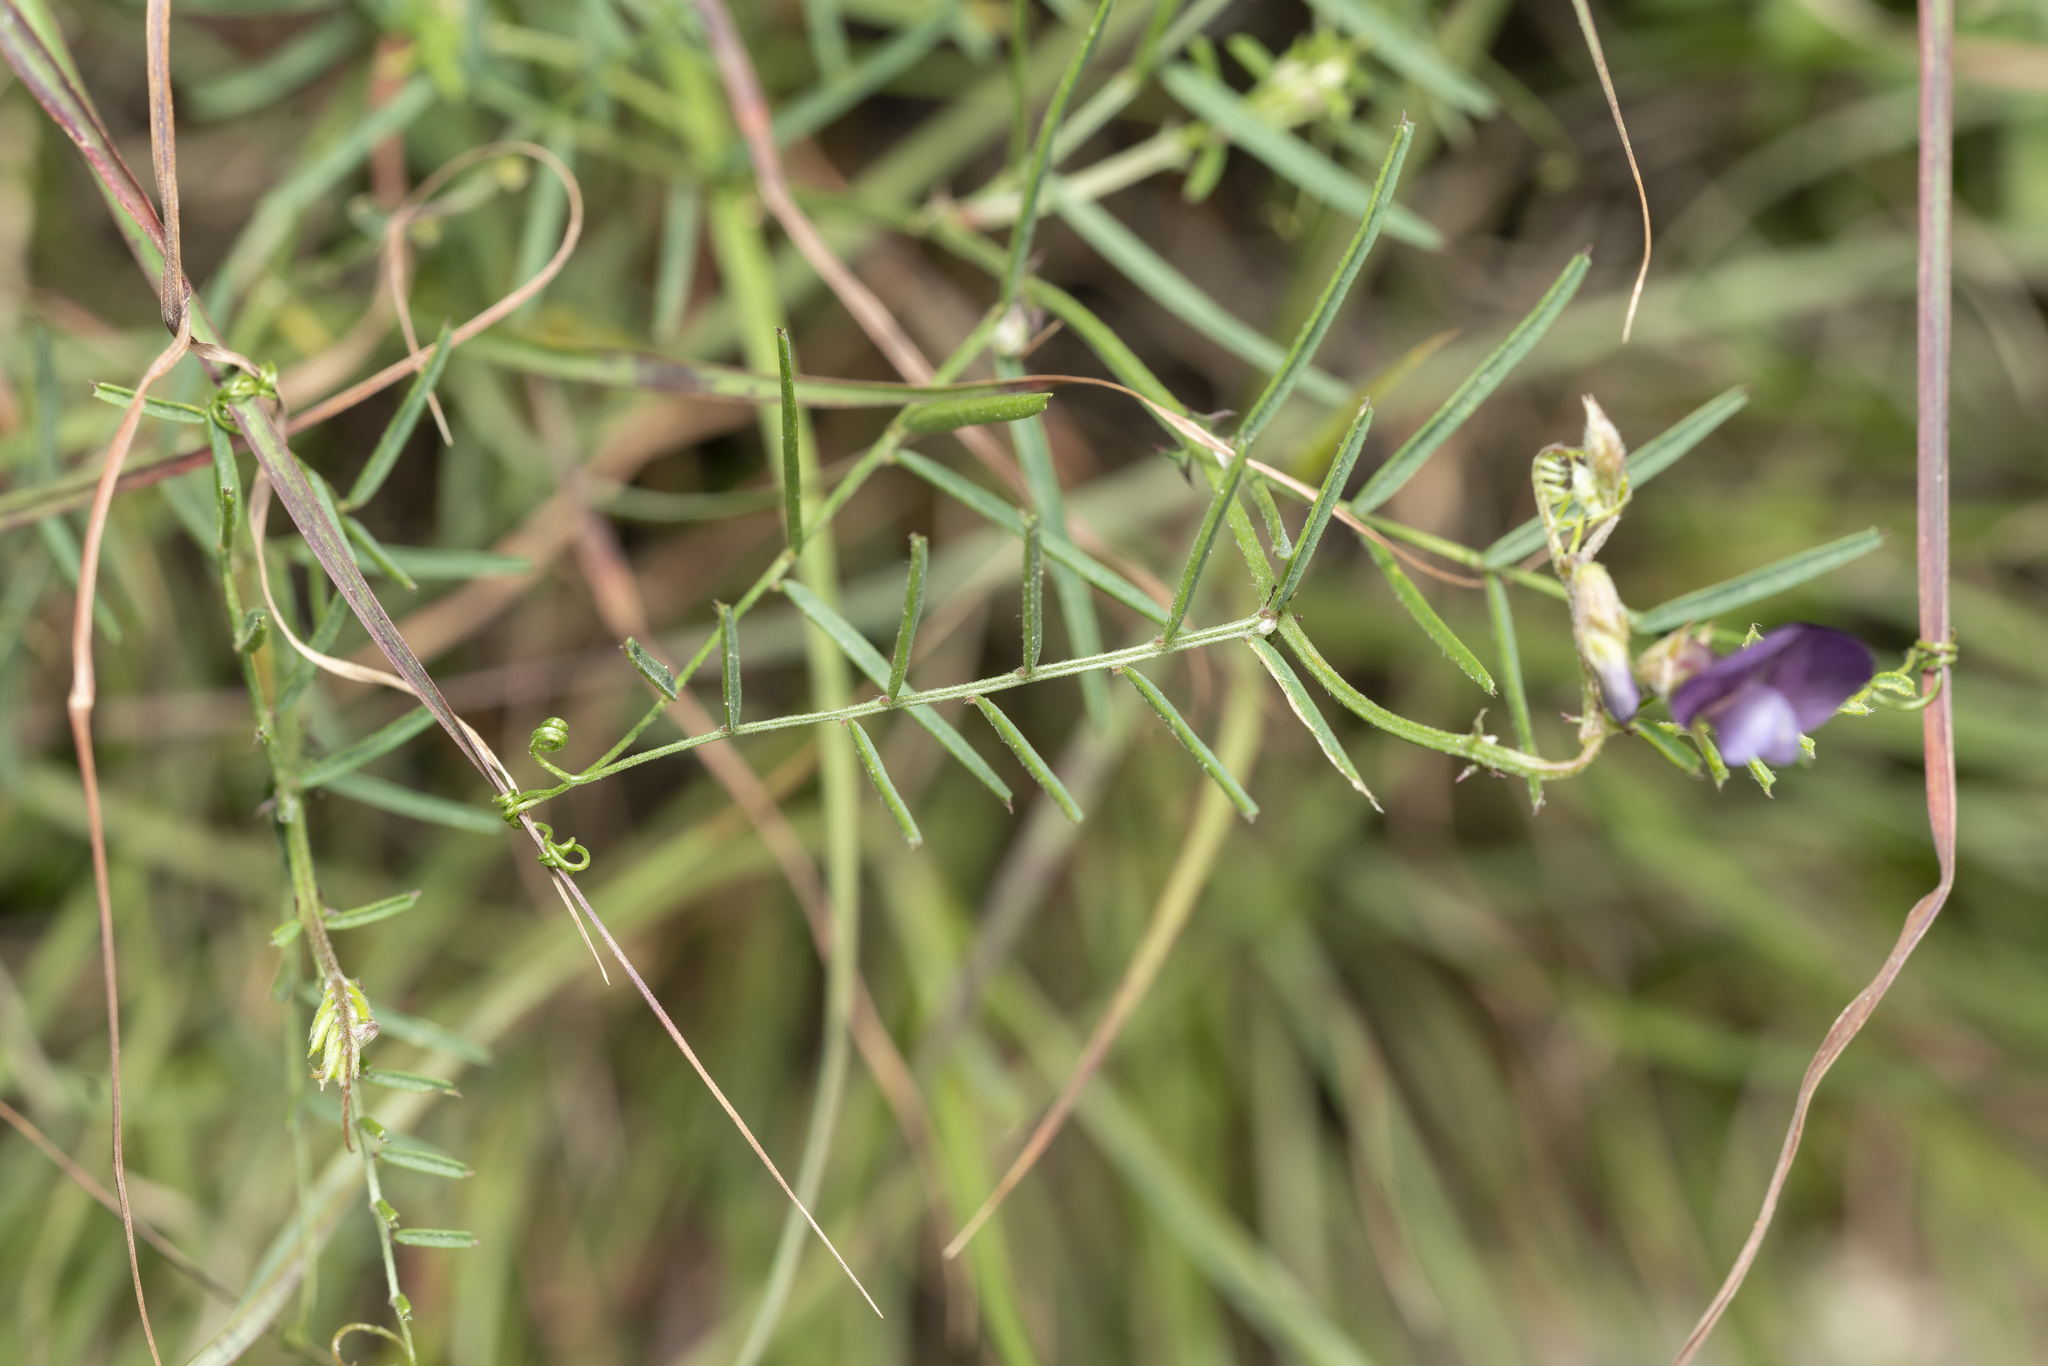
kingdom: Plantae
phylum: Tracheophyta
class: Magnoliopsida
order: Fabales
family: Fabaceae
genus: Vicia
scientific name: Vicia peregrina
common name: Broad-pod vetch
